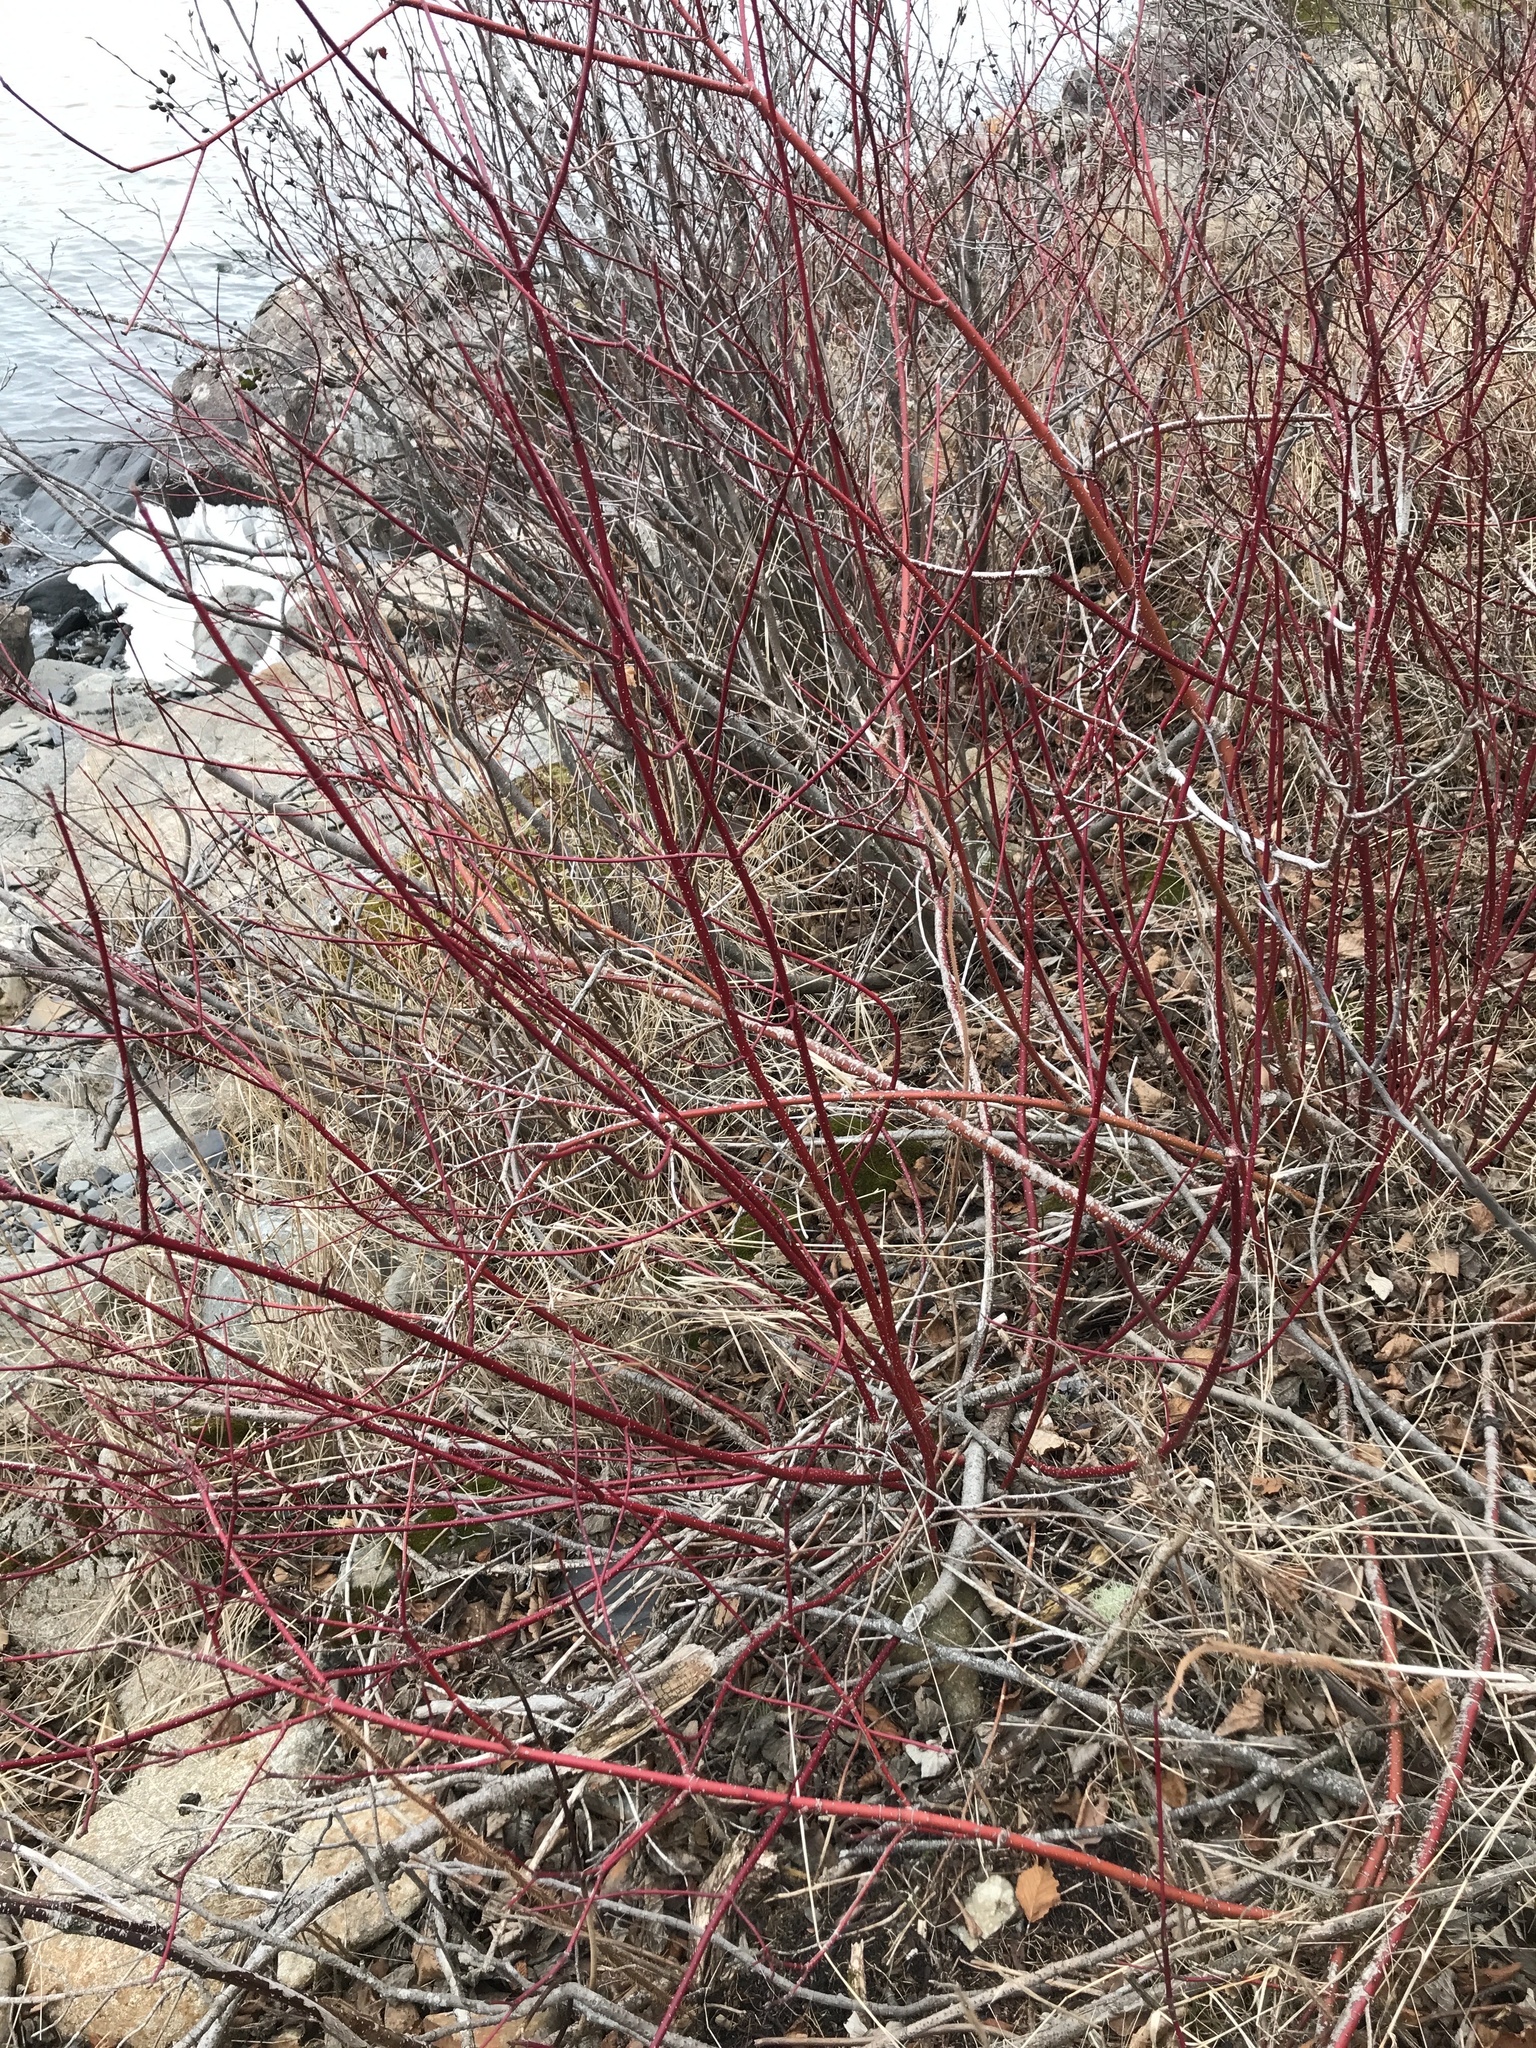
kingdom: Plantae
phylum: Tracheophyta
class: Magnoliopsida
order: Cornales
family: Cornaceae
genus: Cornus
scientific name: Cornus sericea
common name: Red-osier dogwood
